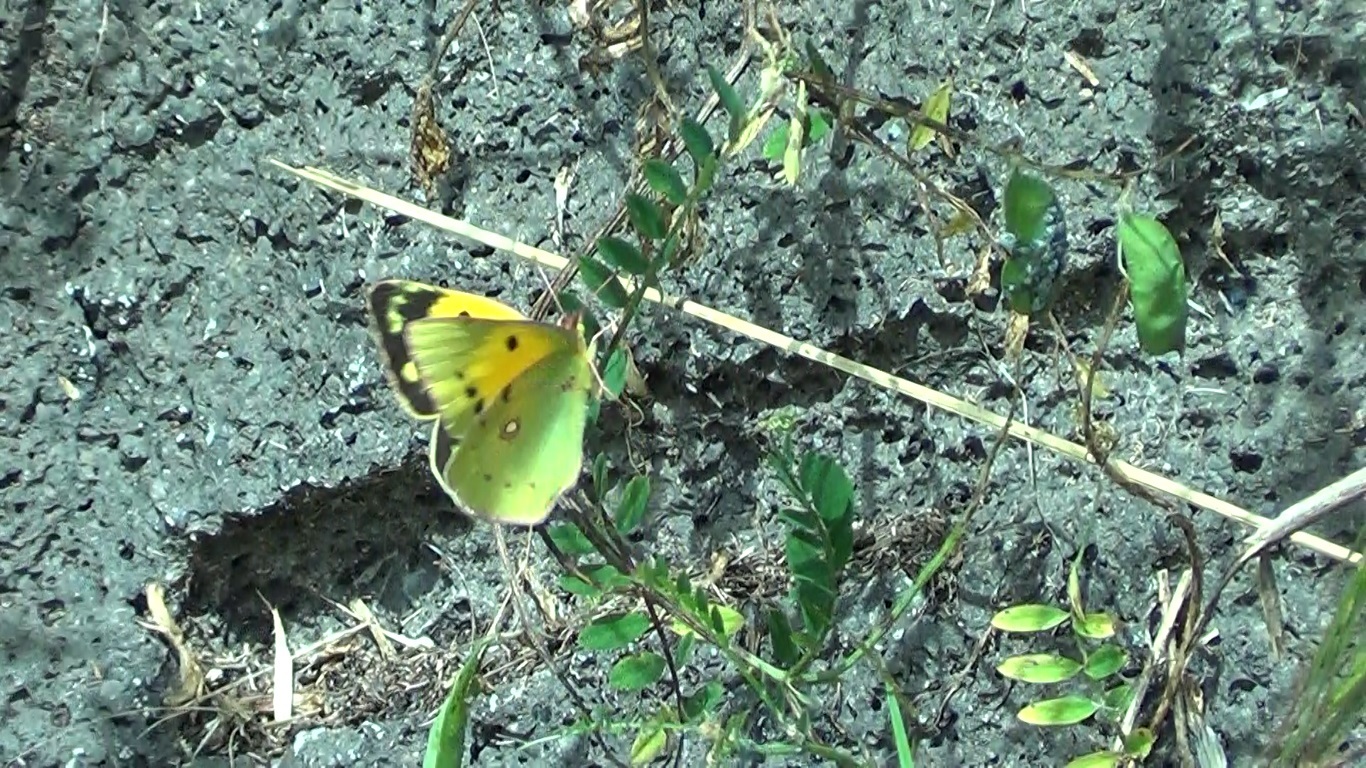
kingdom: Animalia
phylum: Arthropoda
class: Insecta
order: Lepidoptera
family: Pieridae
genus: Colias
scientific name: Colias croceus
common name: Clouded yellow
